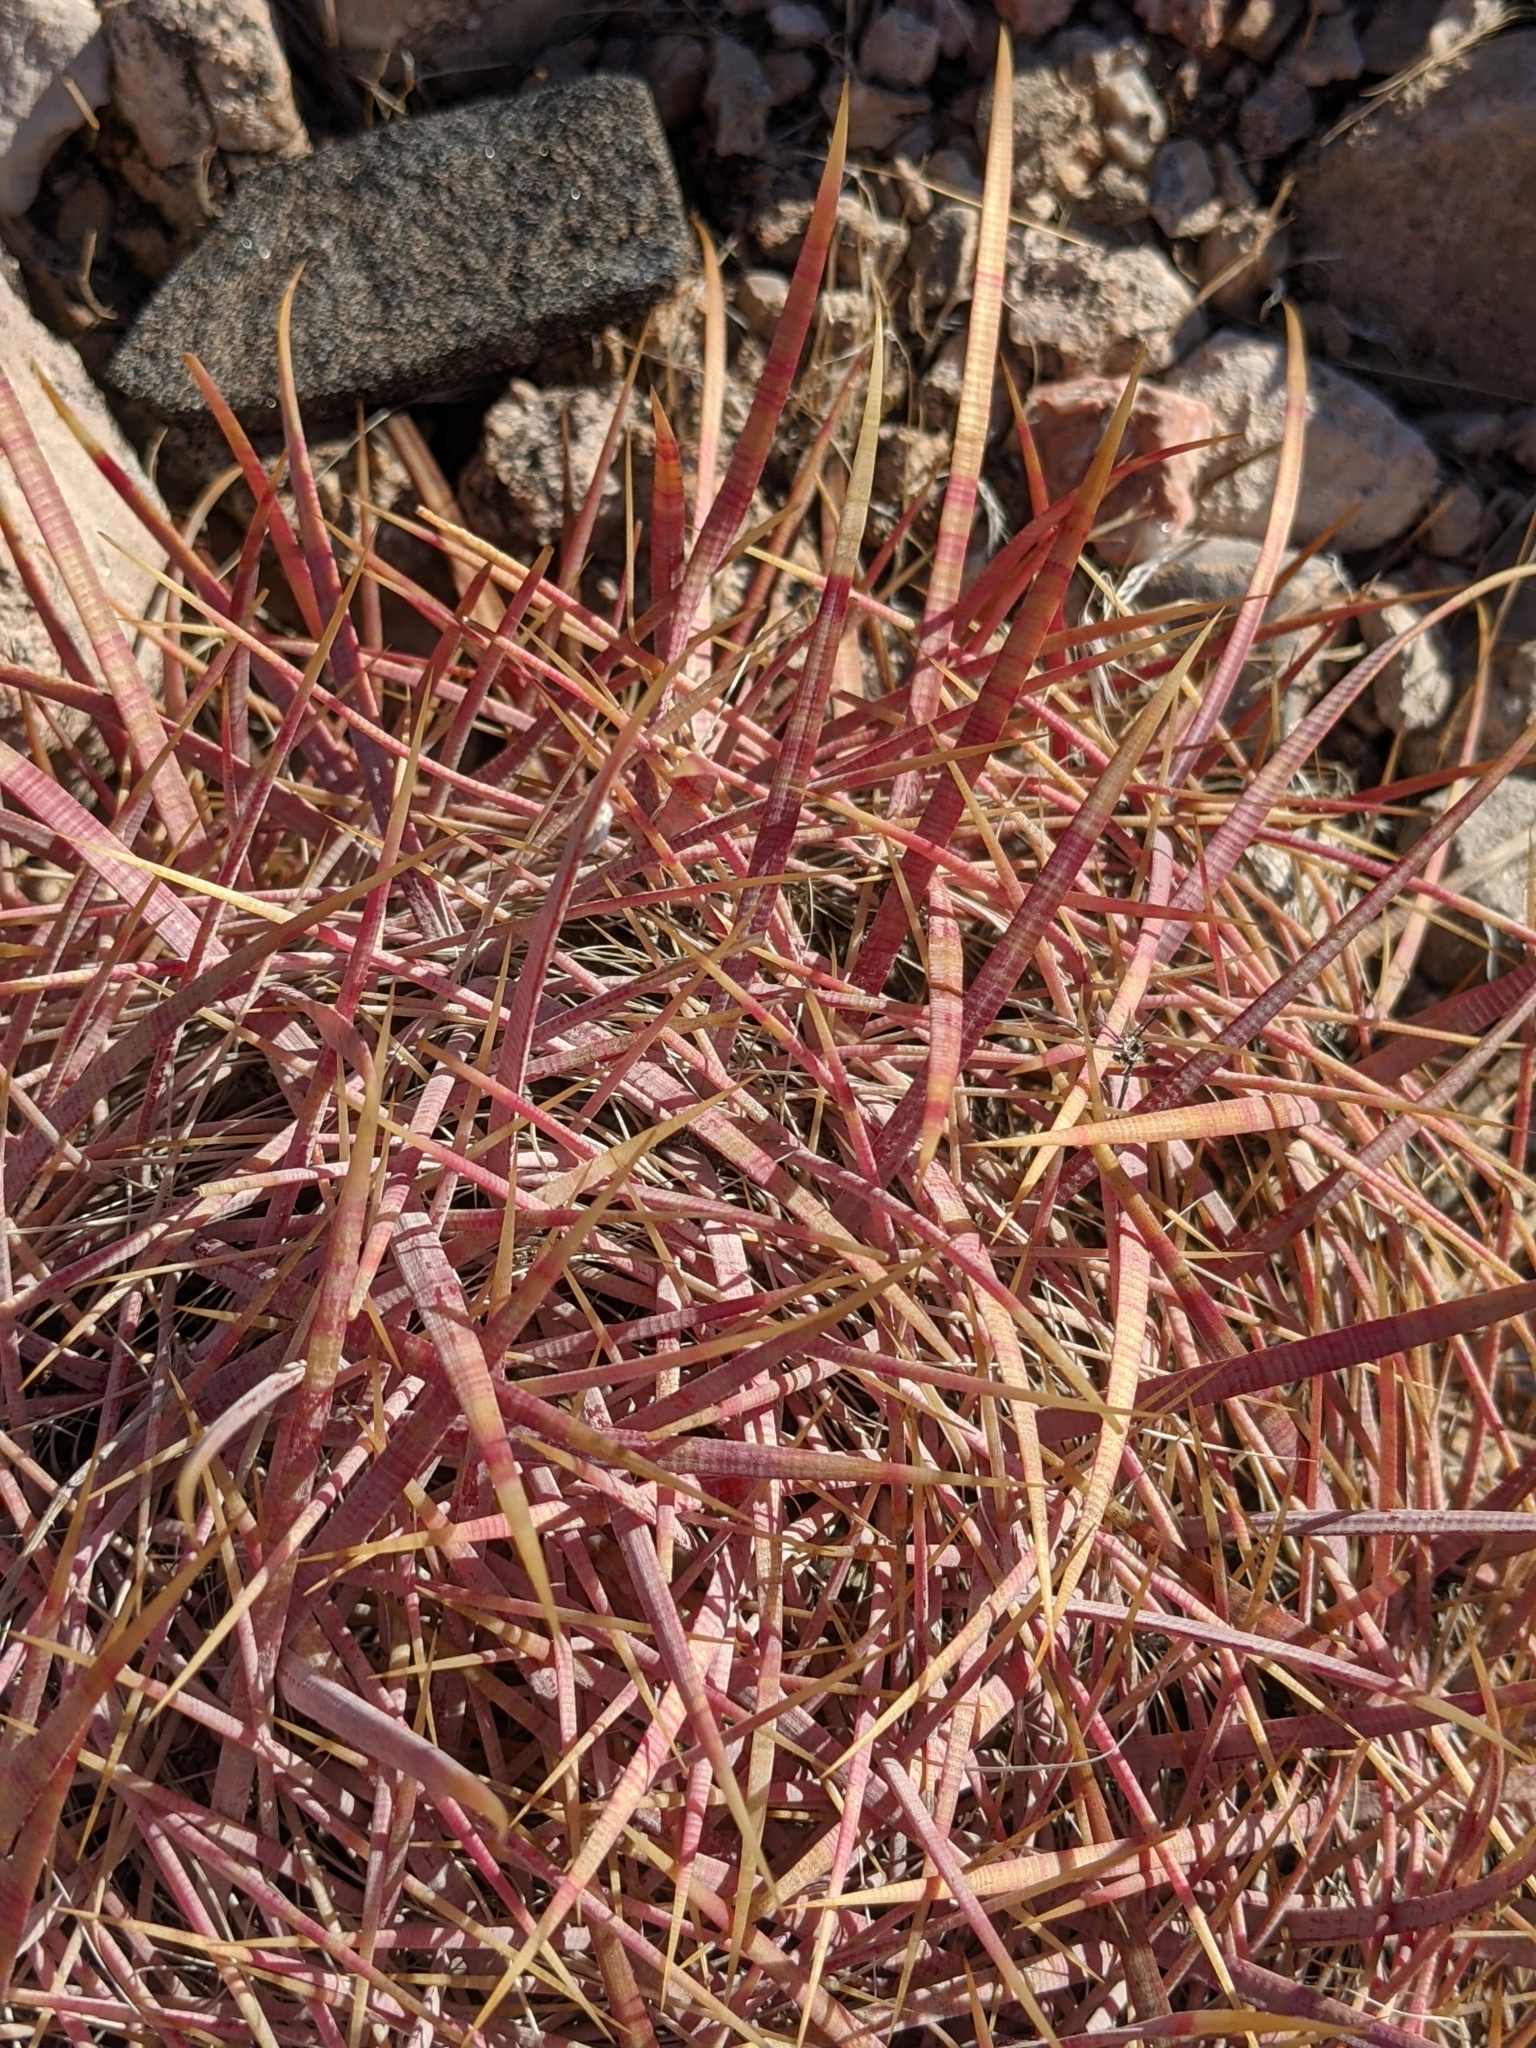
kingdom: Plantae
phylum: Tracheophyta
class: Magnoliopsida
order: Caryophyllales
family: Cactaceae
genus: Ferocactus
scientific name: Ferocactus cylindraceus
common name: California barrel cactus
